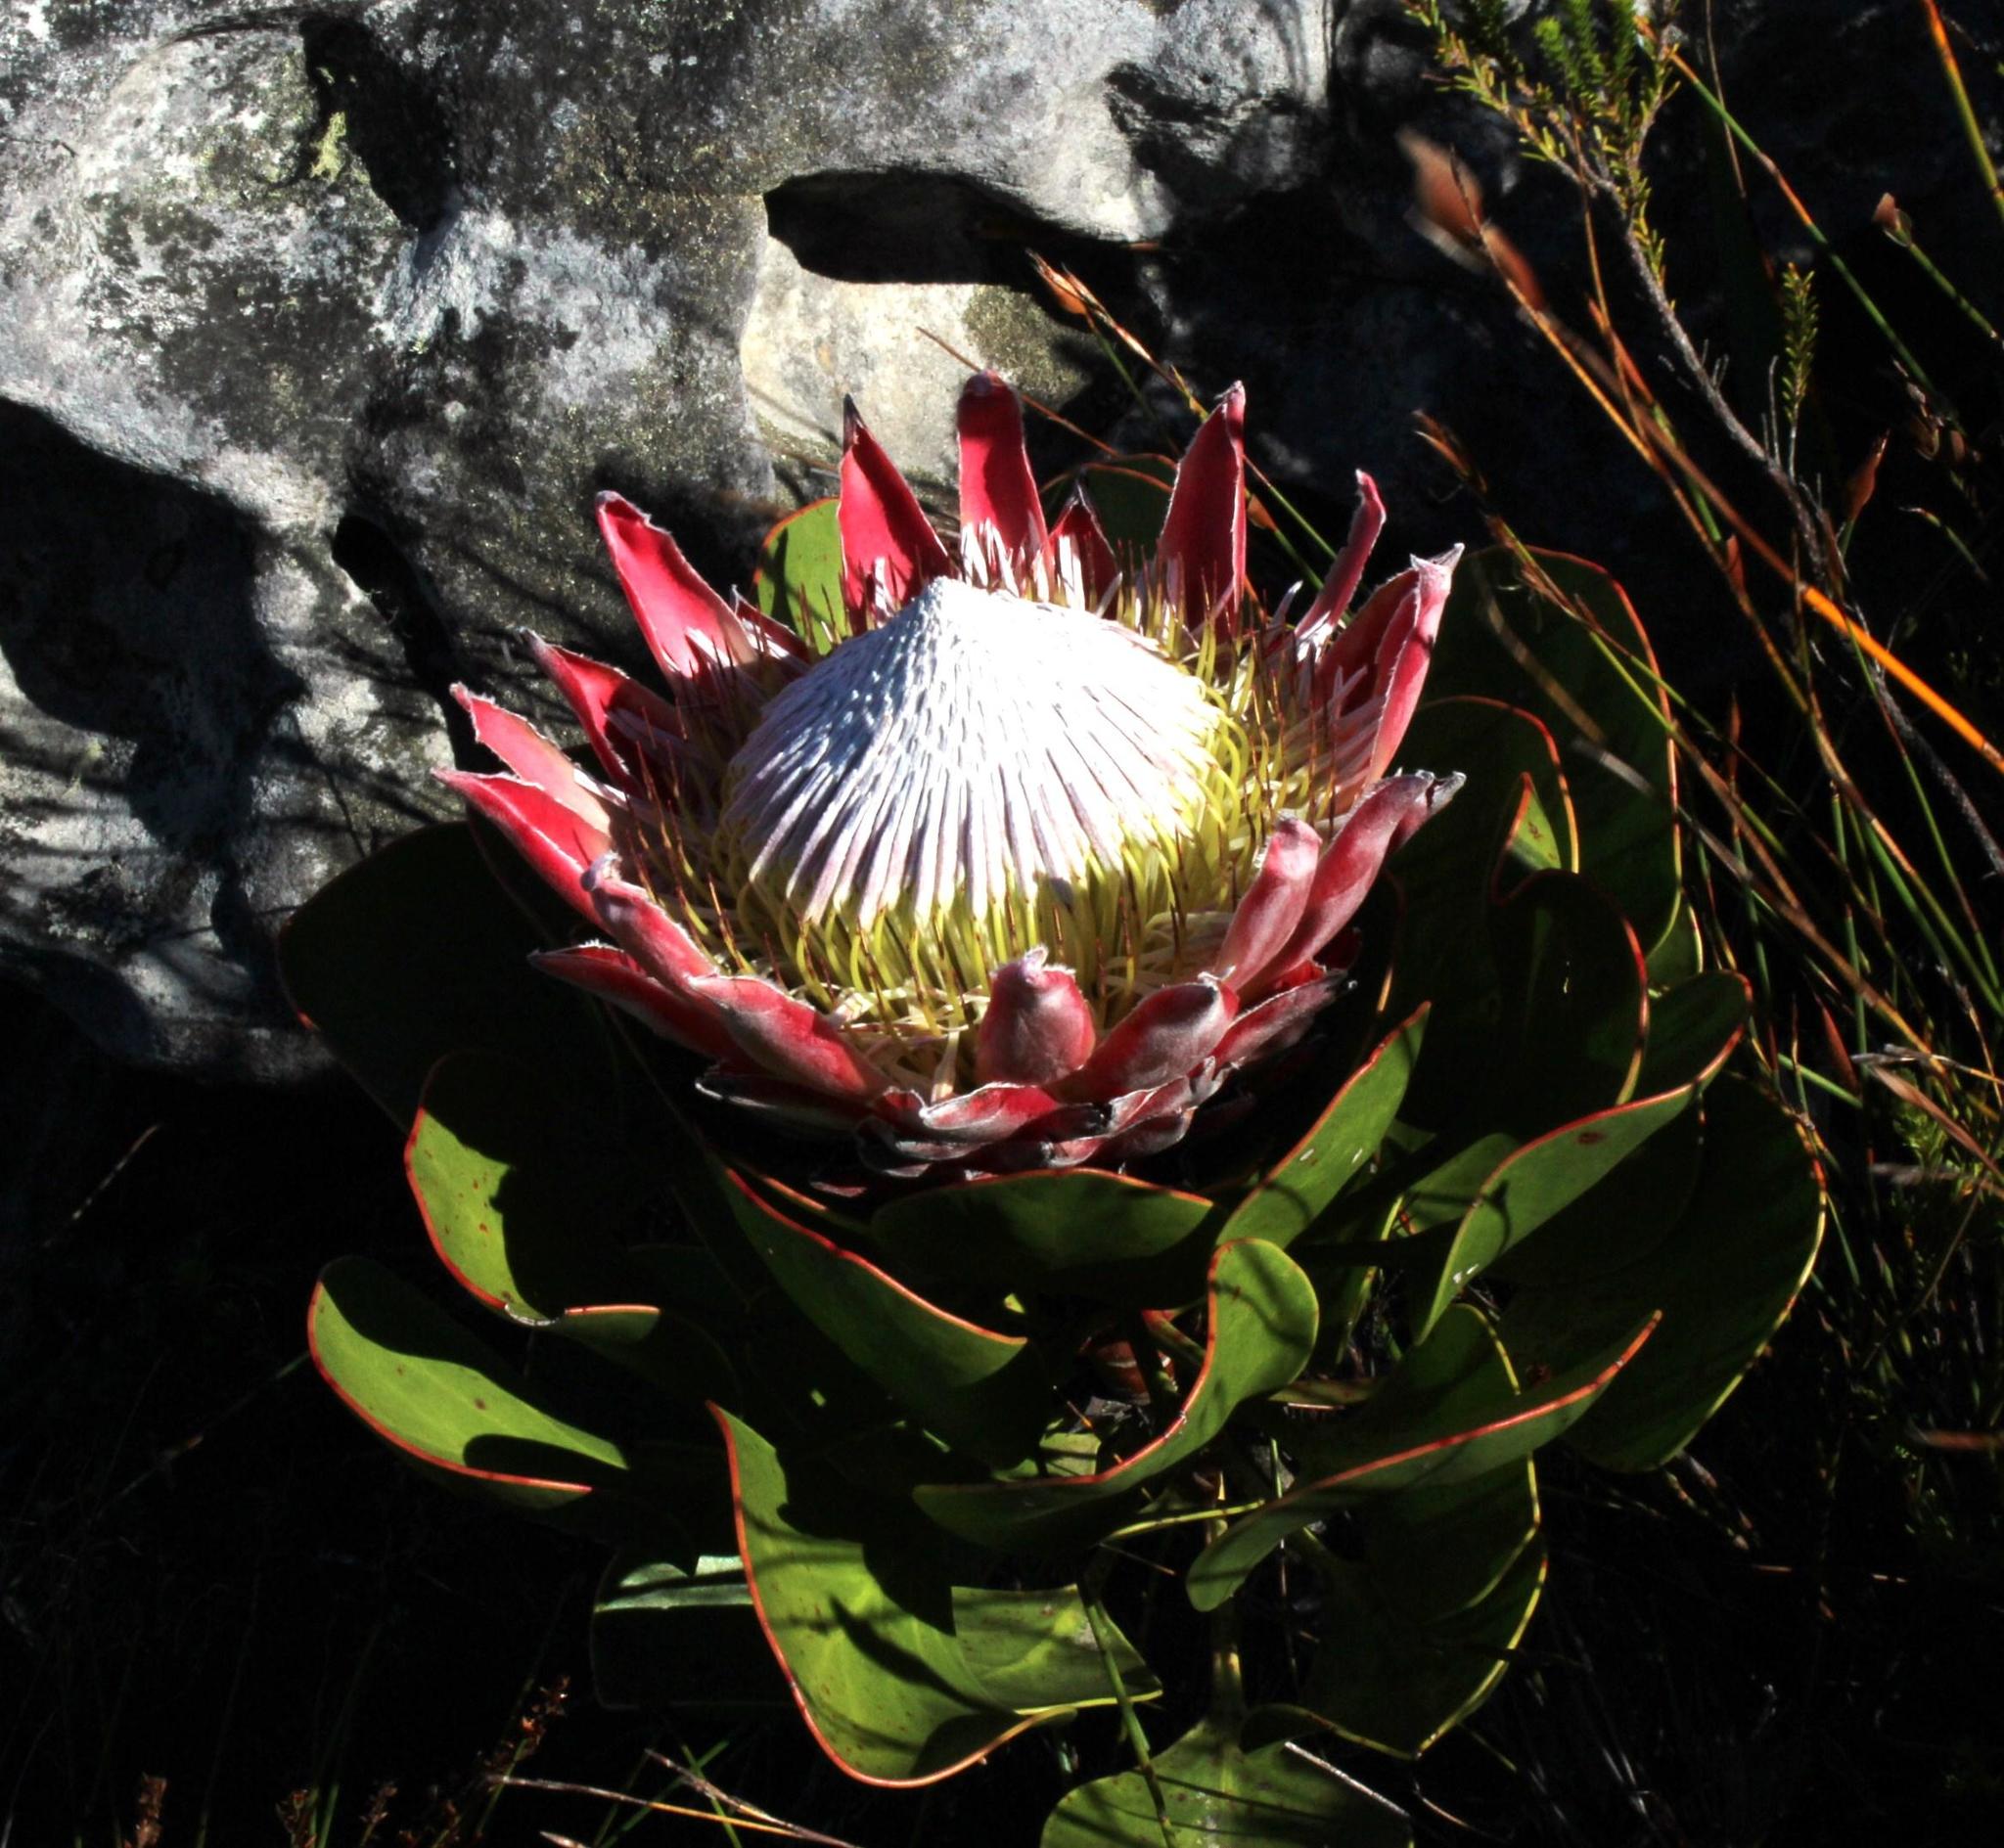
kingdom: Plantae
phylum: Tracheophyta
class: Magnoliopsida
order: Proteales
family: Proteaceae
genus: Protea
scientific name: Protea cynaroides
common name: King protea
